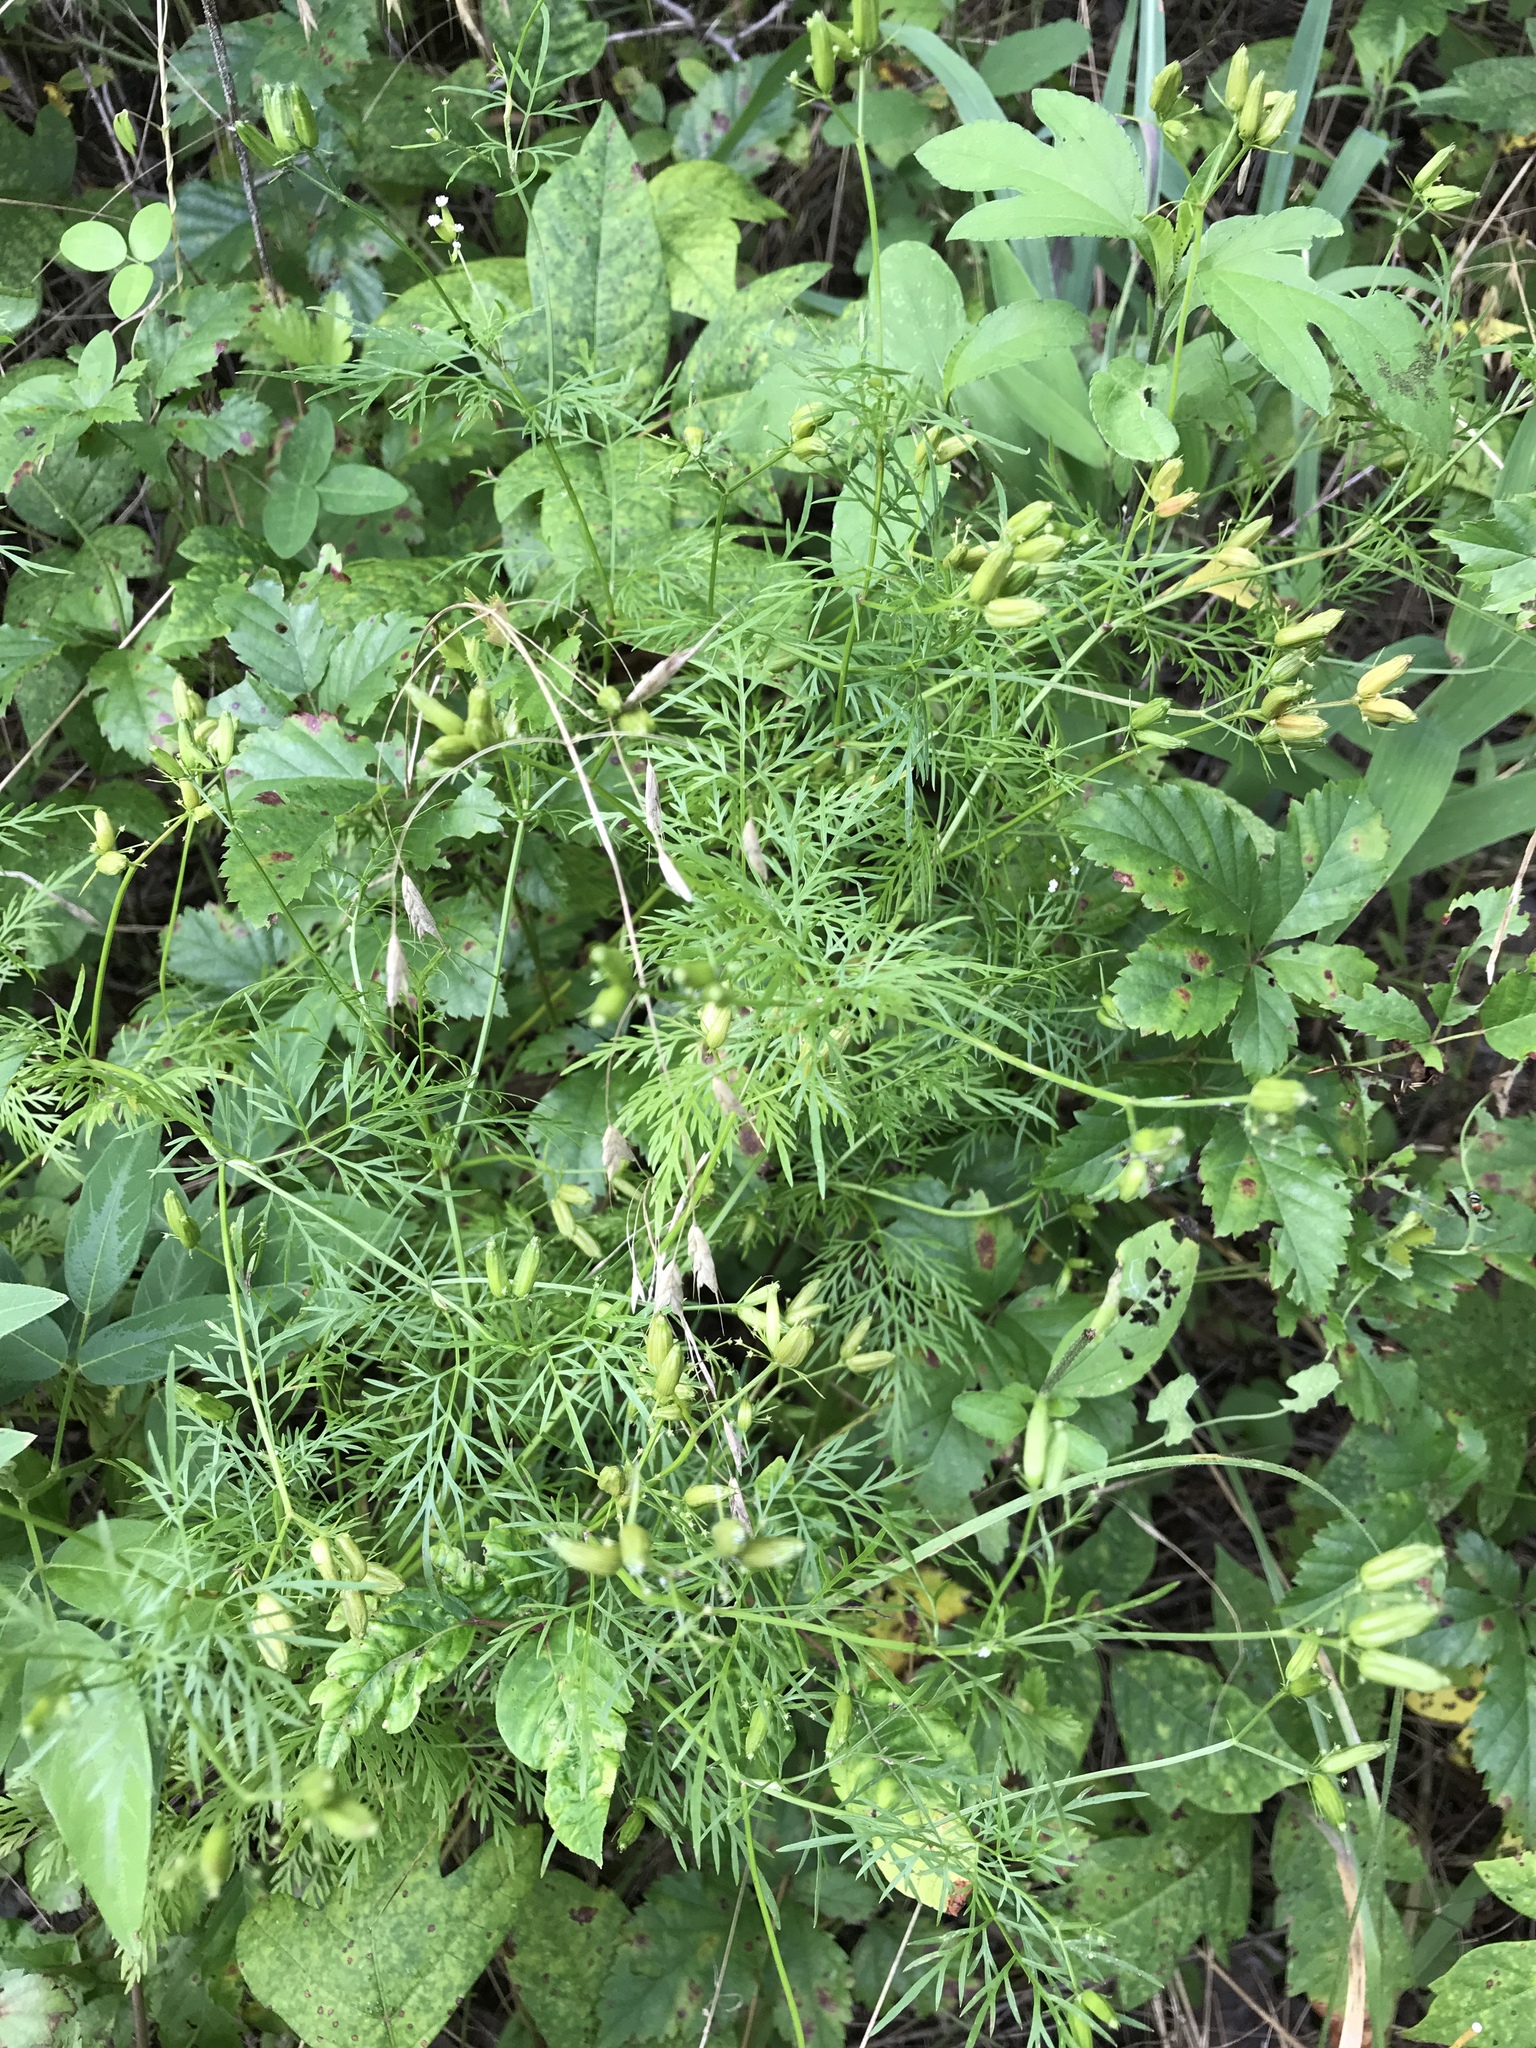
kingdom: Plantae
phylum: Tracheophyta
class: Magnoliopsida
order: Apiales
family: Apiaceae
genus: Trepocarpus
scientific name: Trepocarpus aethusae
